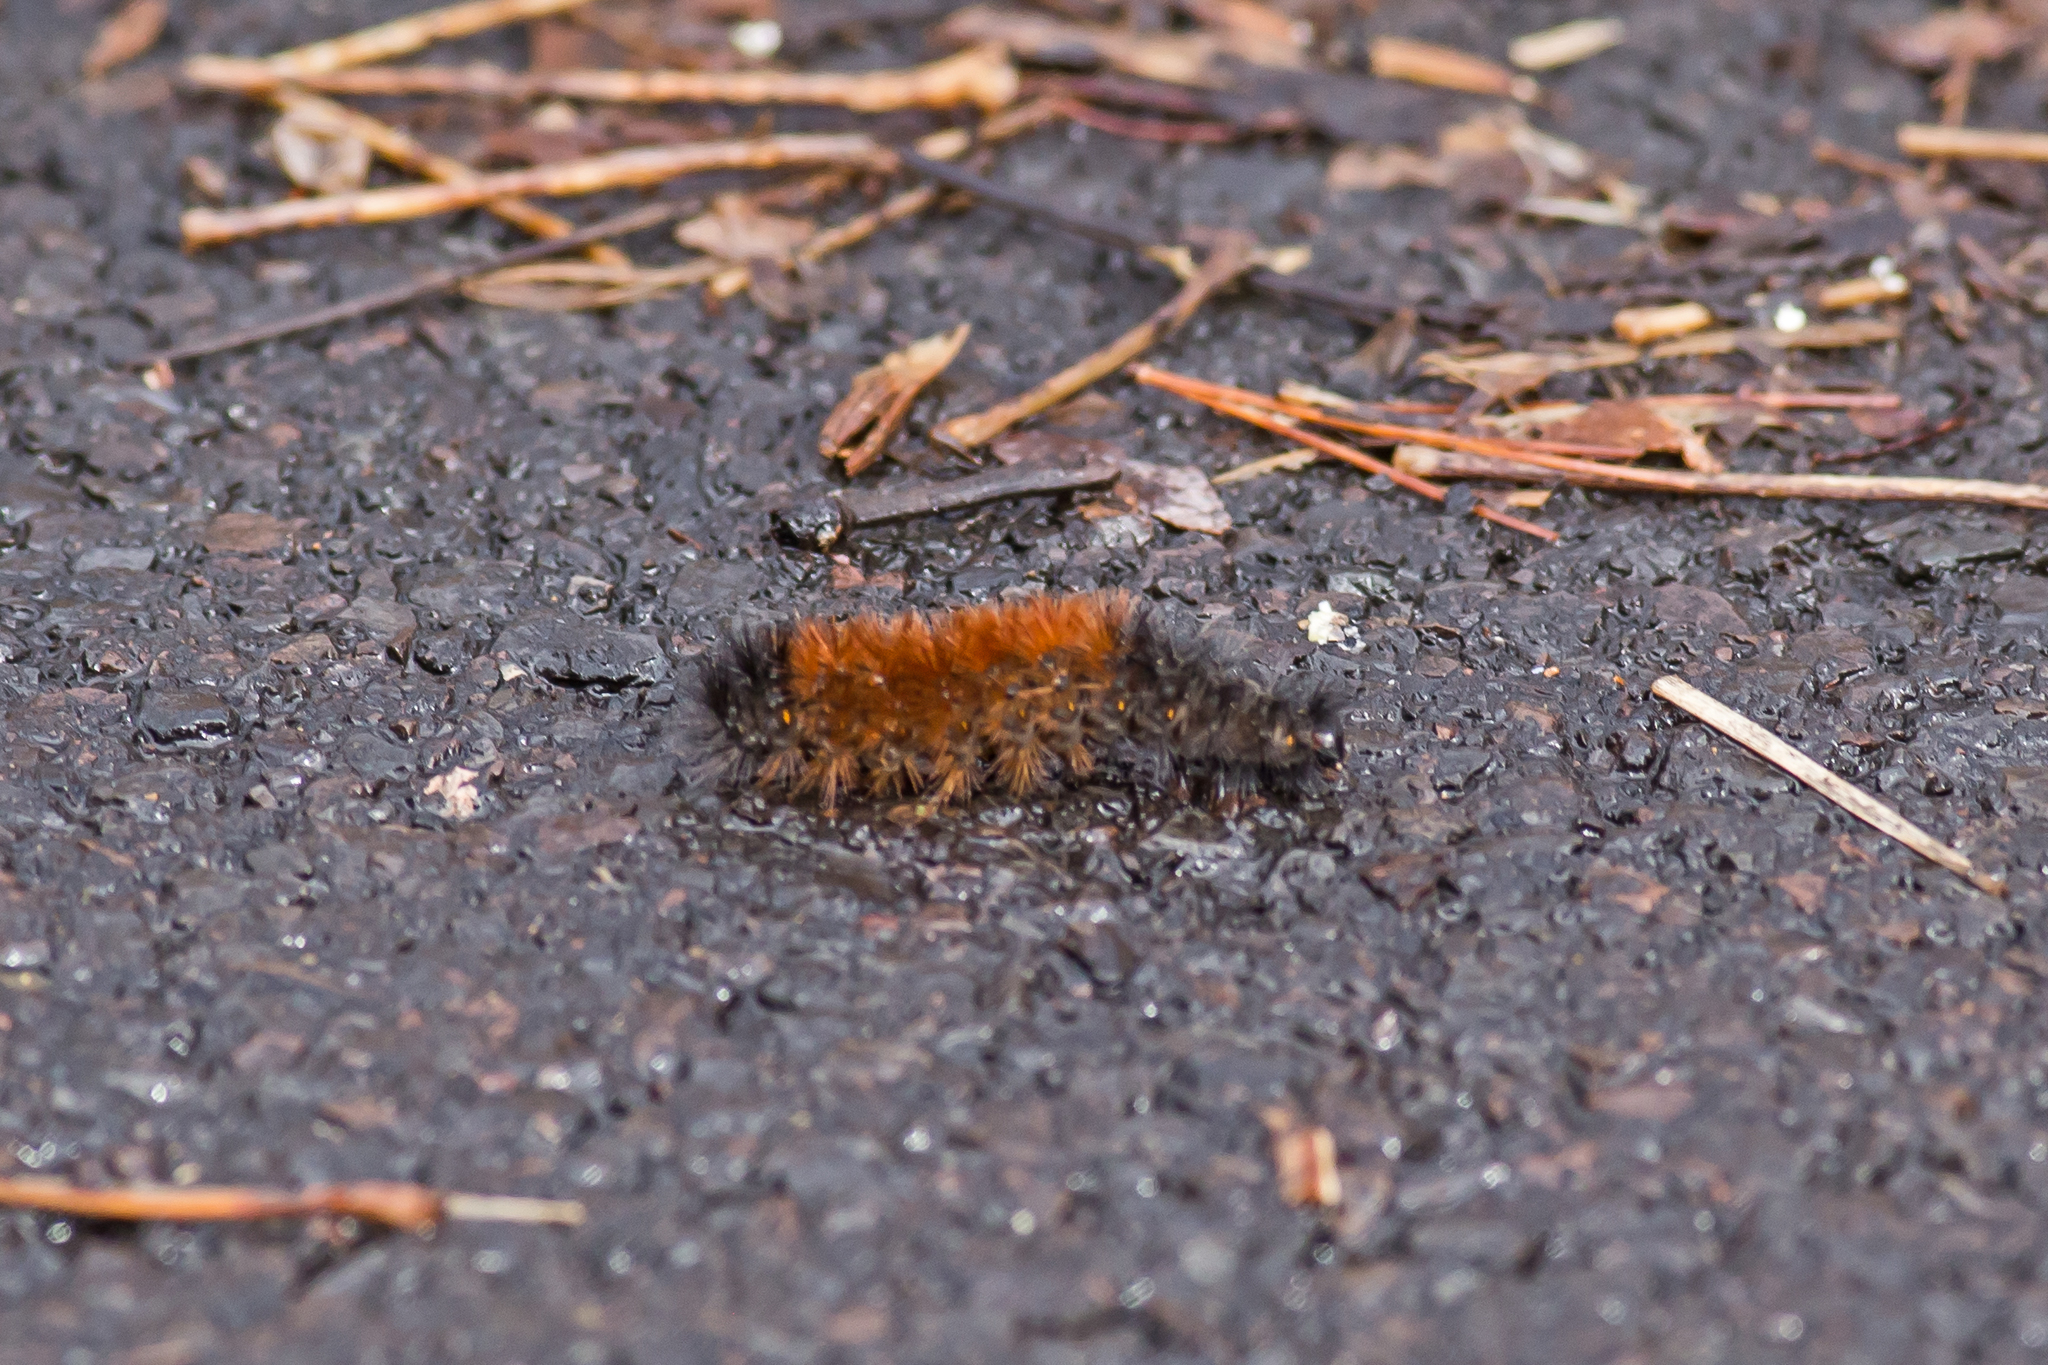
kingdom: Animalia
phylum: Arthropoda
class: Insecta
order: Lepidoptera
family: Erebidae
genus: Pyrrharctia
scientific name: Pyrrharctia isabella
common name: Isabella tiger moth
